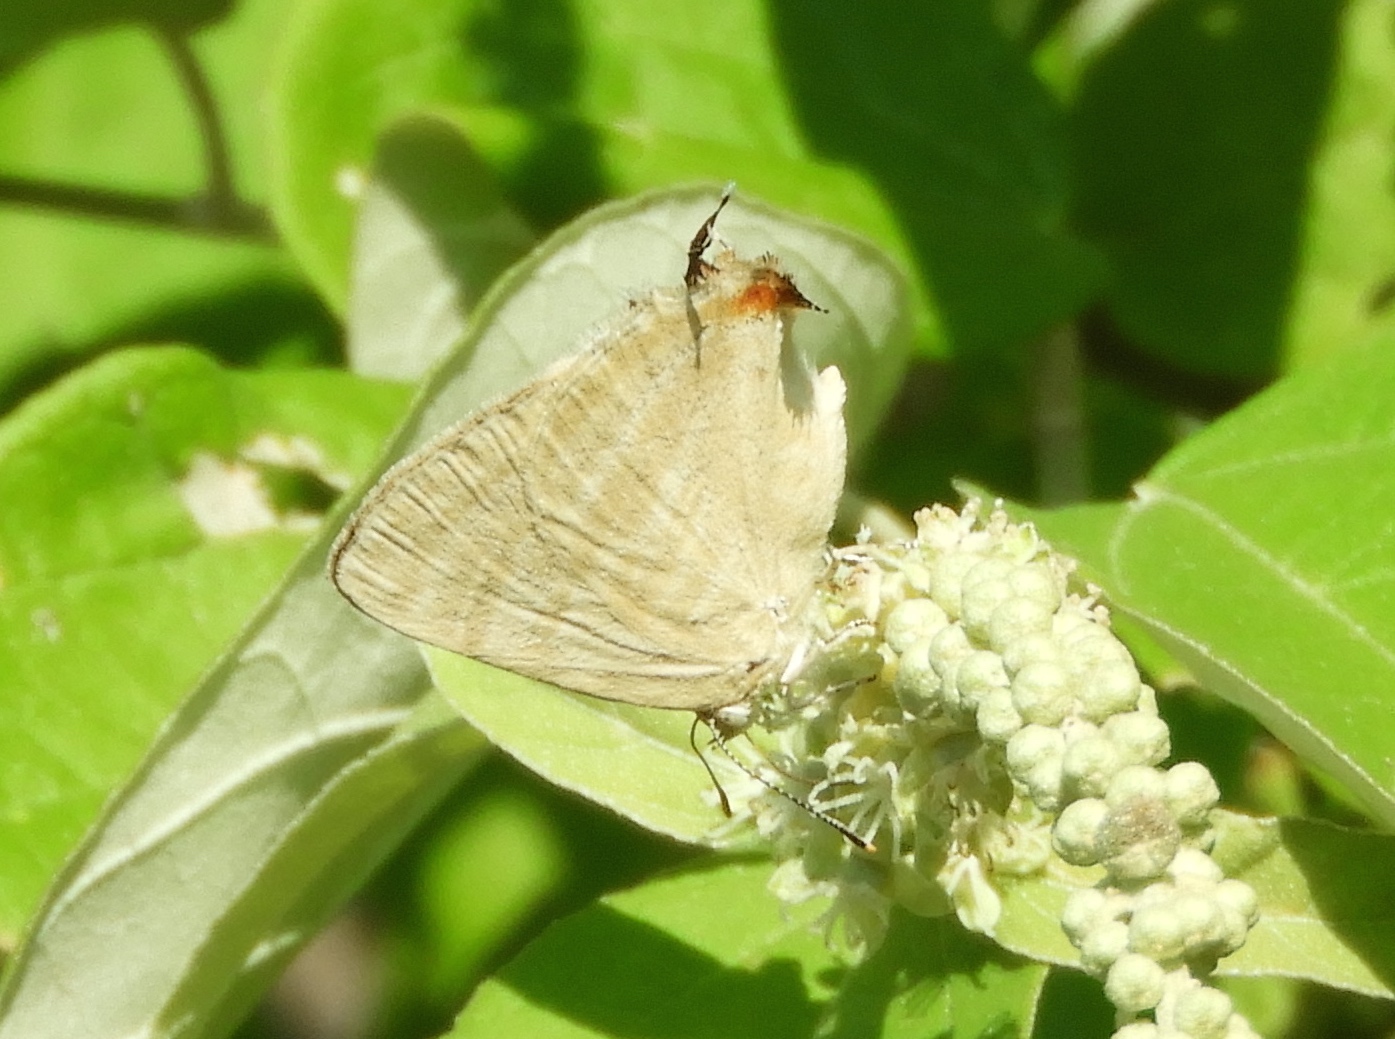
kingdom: Animalia
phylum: Arthropoda
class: Insecta
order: Lepidoptera
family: Lycaenidae
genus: Dolymorpha
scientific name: Dolymorpha jada
